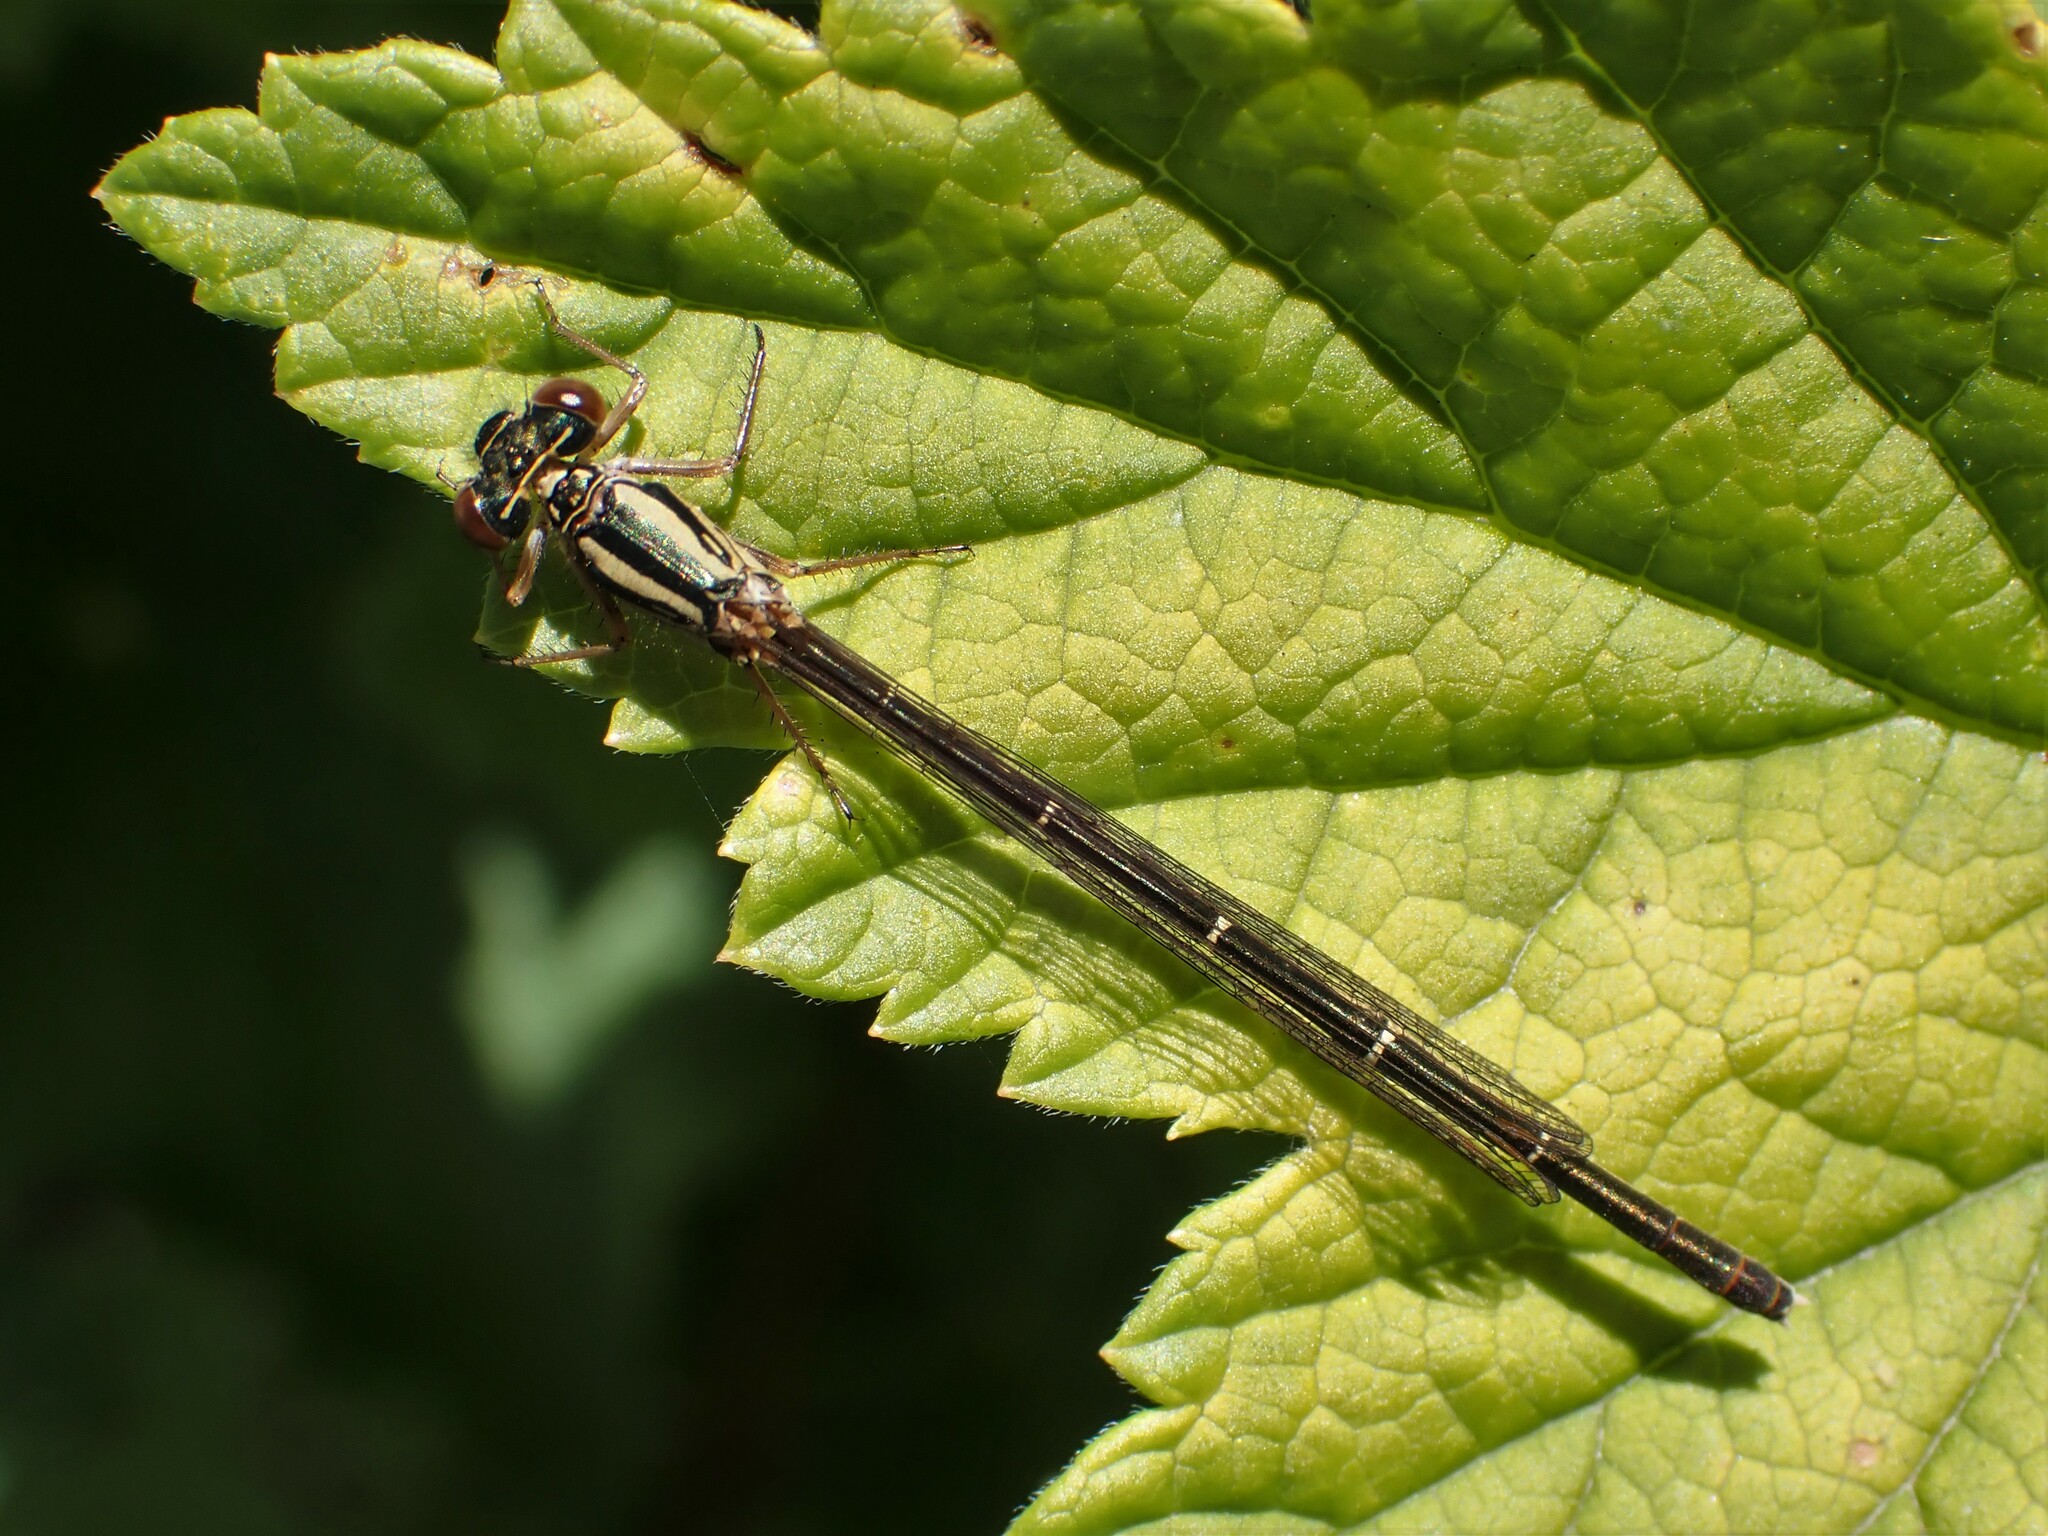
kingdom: Animalia
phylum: Arthropoda
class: Insecta
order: Odonata
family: Coenagrionidae
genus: Xanthocnemis
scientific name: Xanthocnemis zealandica
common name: Common redcoat damselfly
